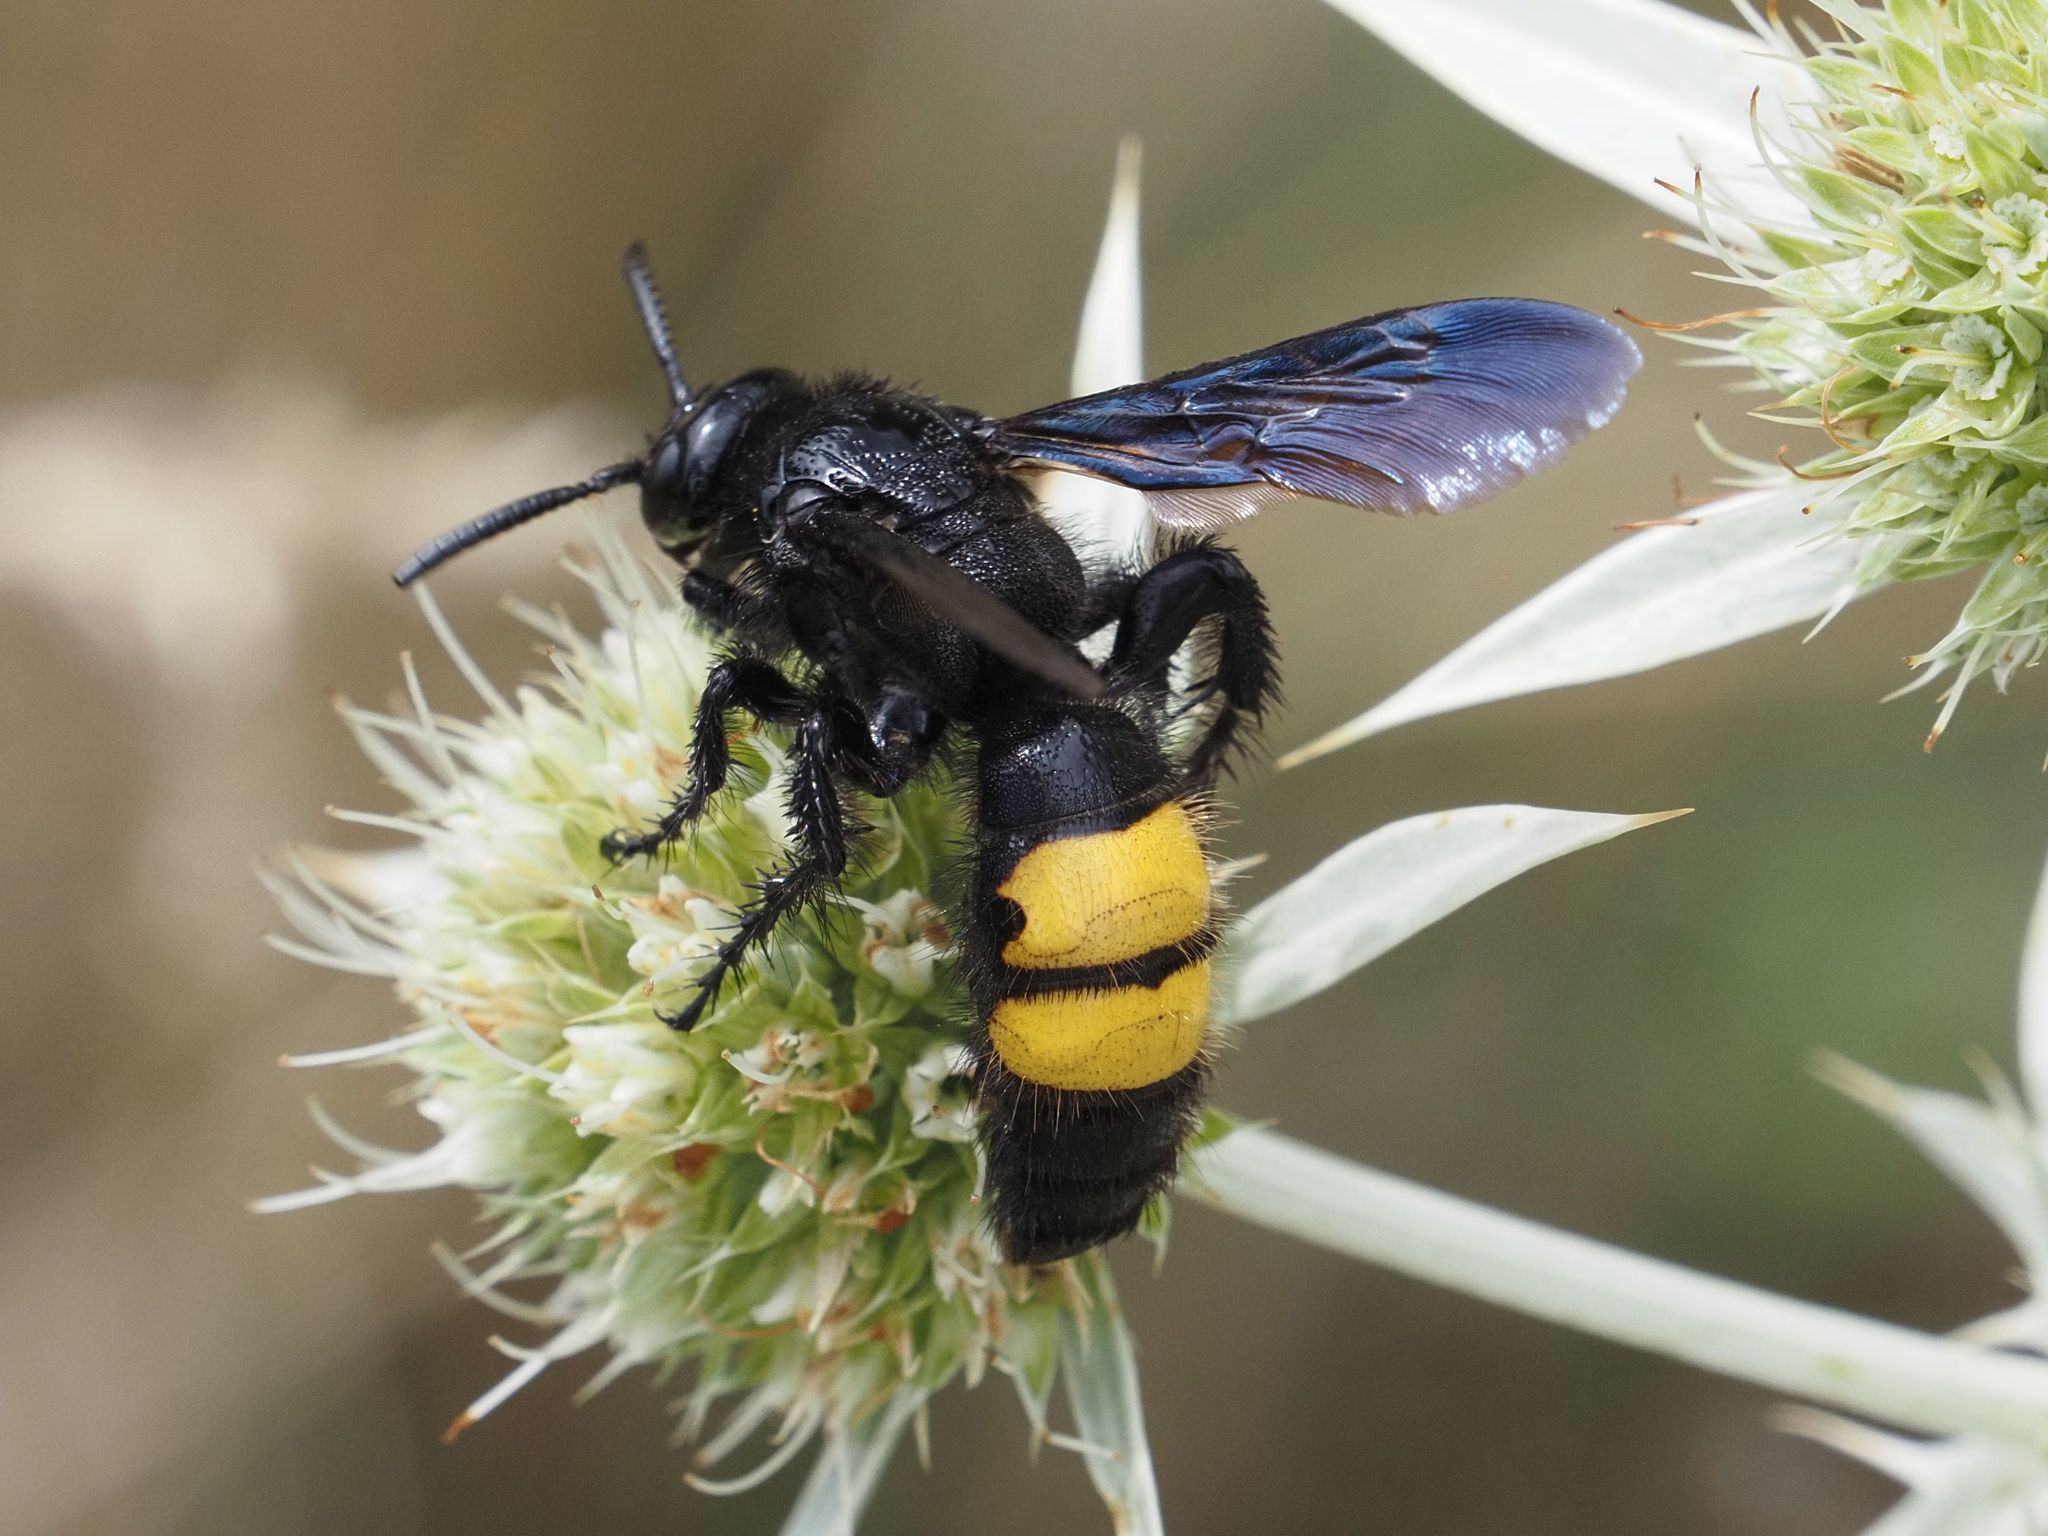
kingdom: Animalia
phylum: Arthropoda
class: Insecta
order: Hymenoptera
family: Scoliidae
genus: Scolia
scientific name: Scolia hirta
